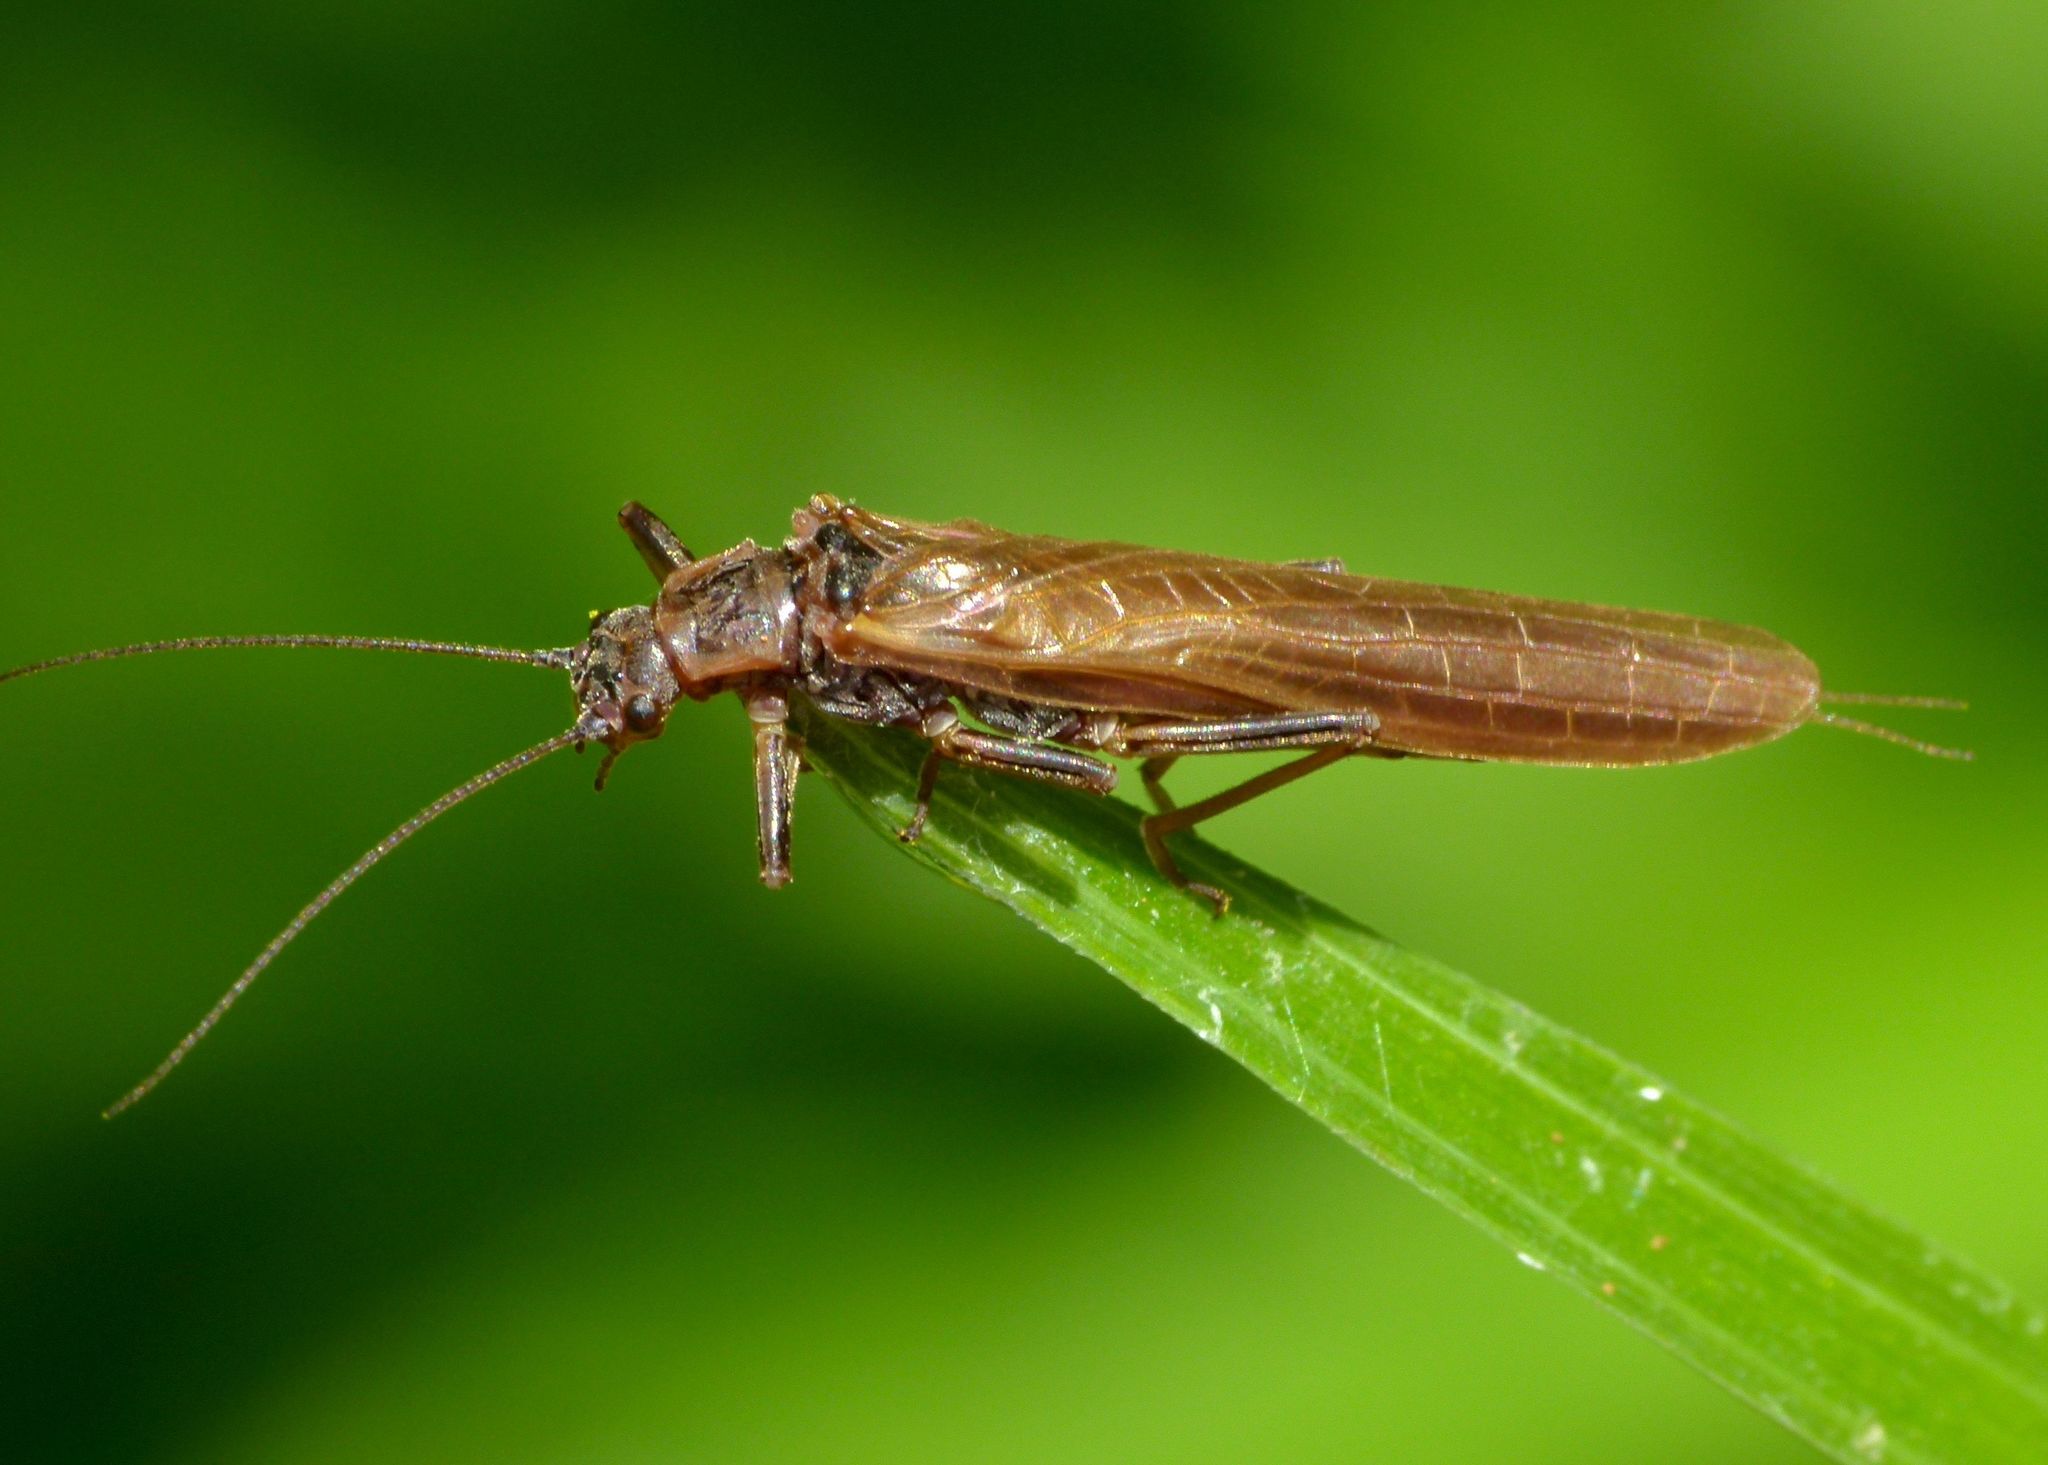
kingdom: Animalia
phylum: Arthropoda
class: Insecta
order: Plecoptera
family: Gripopterygidae
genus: Taraperla
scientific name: Taraperla ancilis
